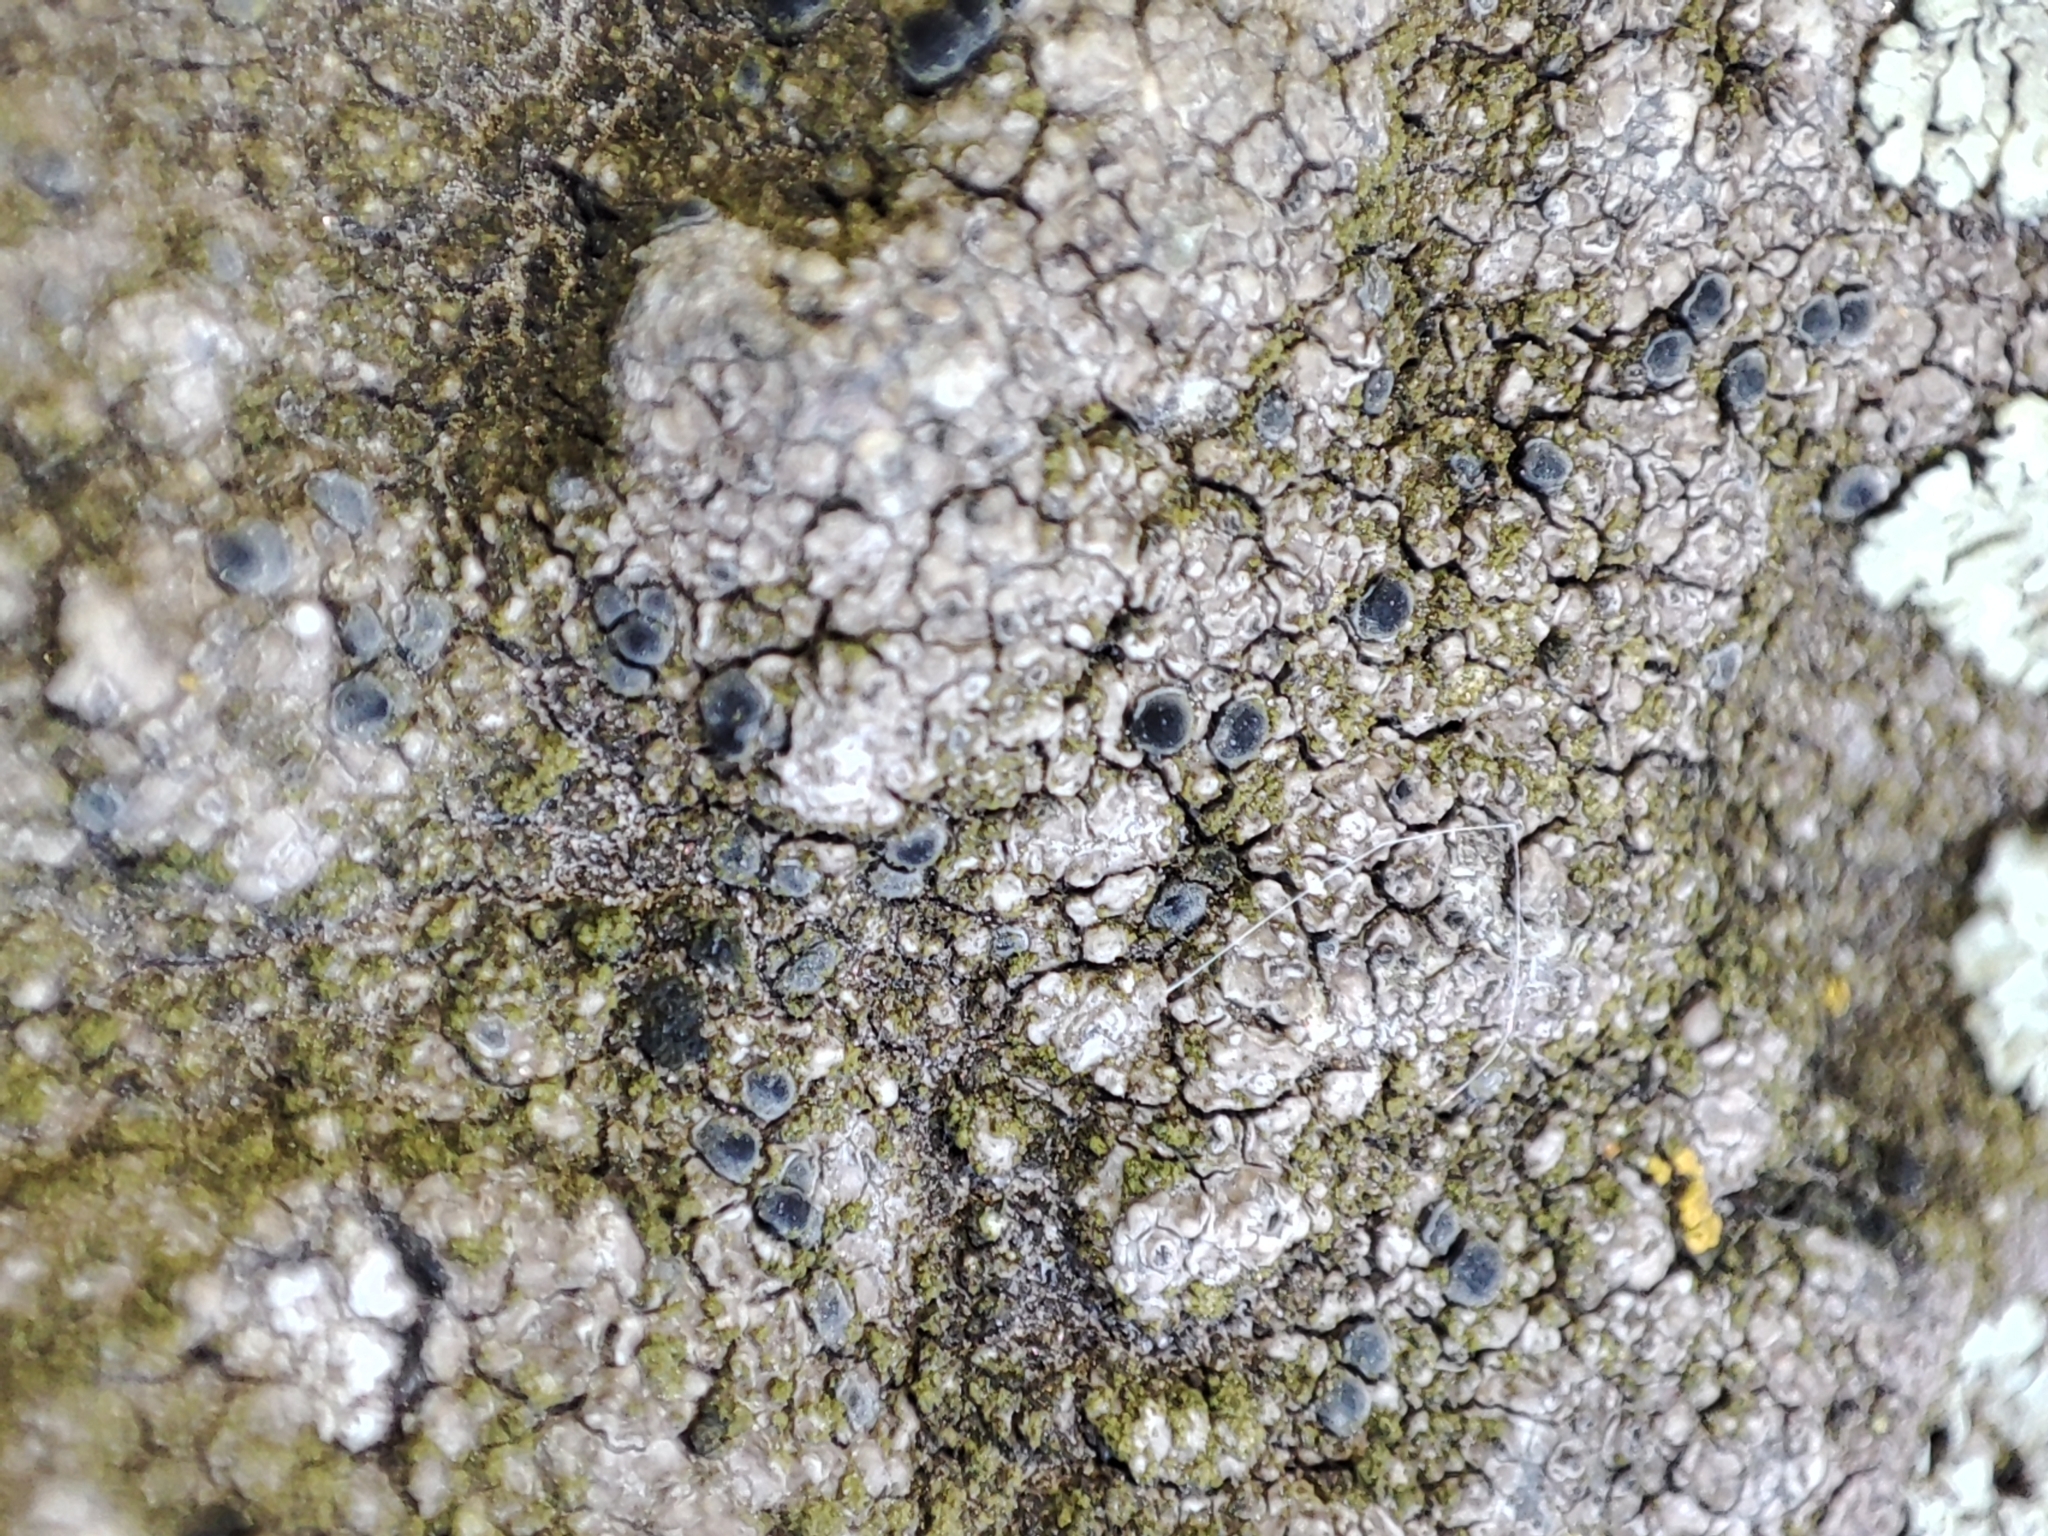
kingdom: Fungi
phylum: Ascomycota
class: Lecanoromycetes
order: Lecideales
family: Lecideaceae
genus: Lecidea
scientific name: Lecidea fuscoatra
